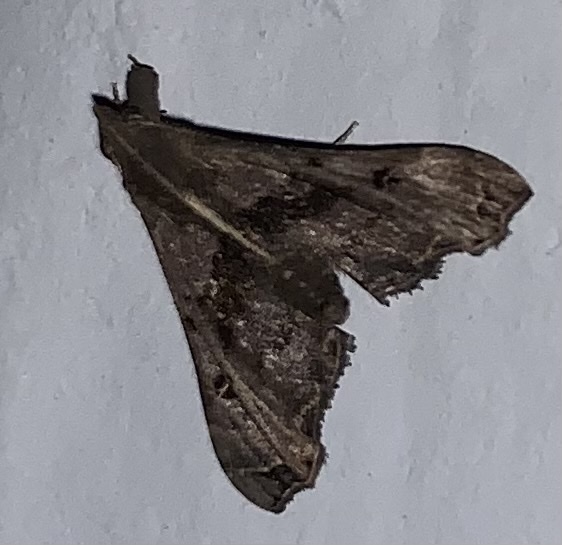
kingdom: Animalia
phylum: Arthropoda
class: Insecta
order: Lepidoptera
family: Erebidae
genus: Palthis
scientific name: Palthis asopialis
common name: Faint-spotted palthis moth
